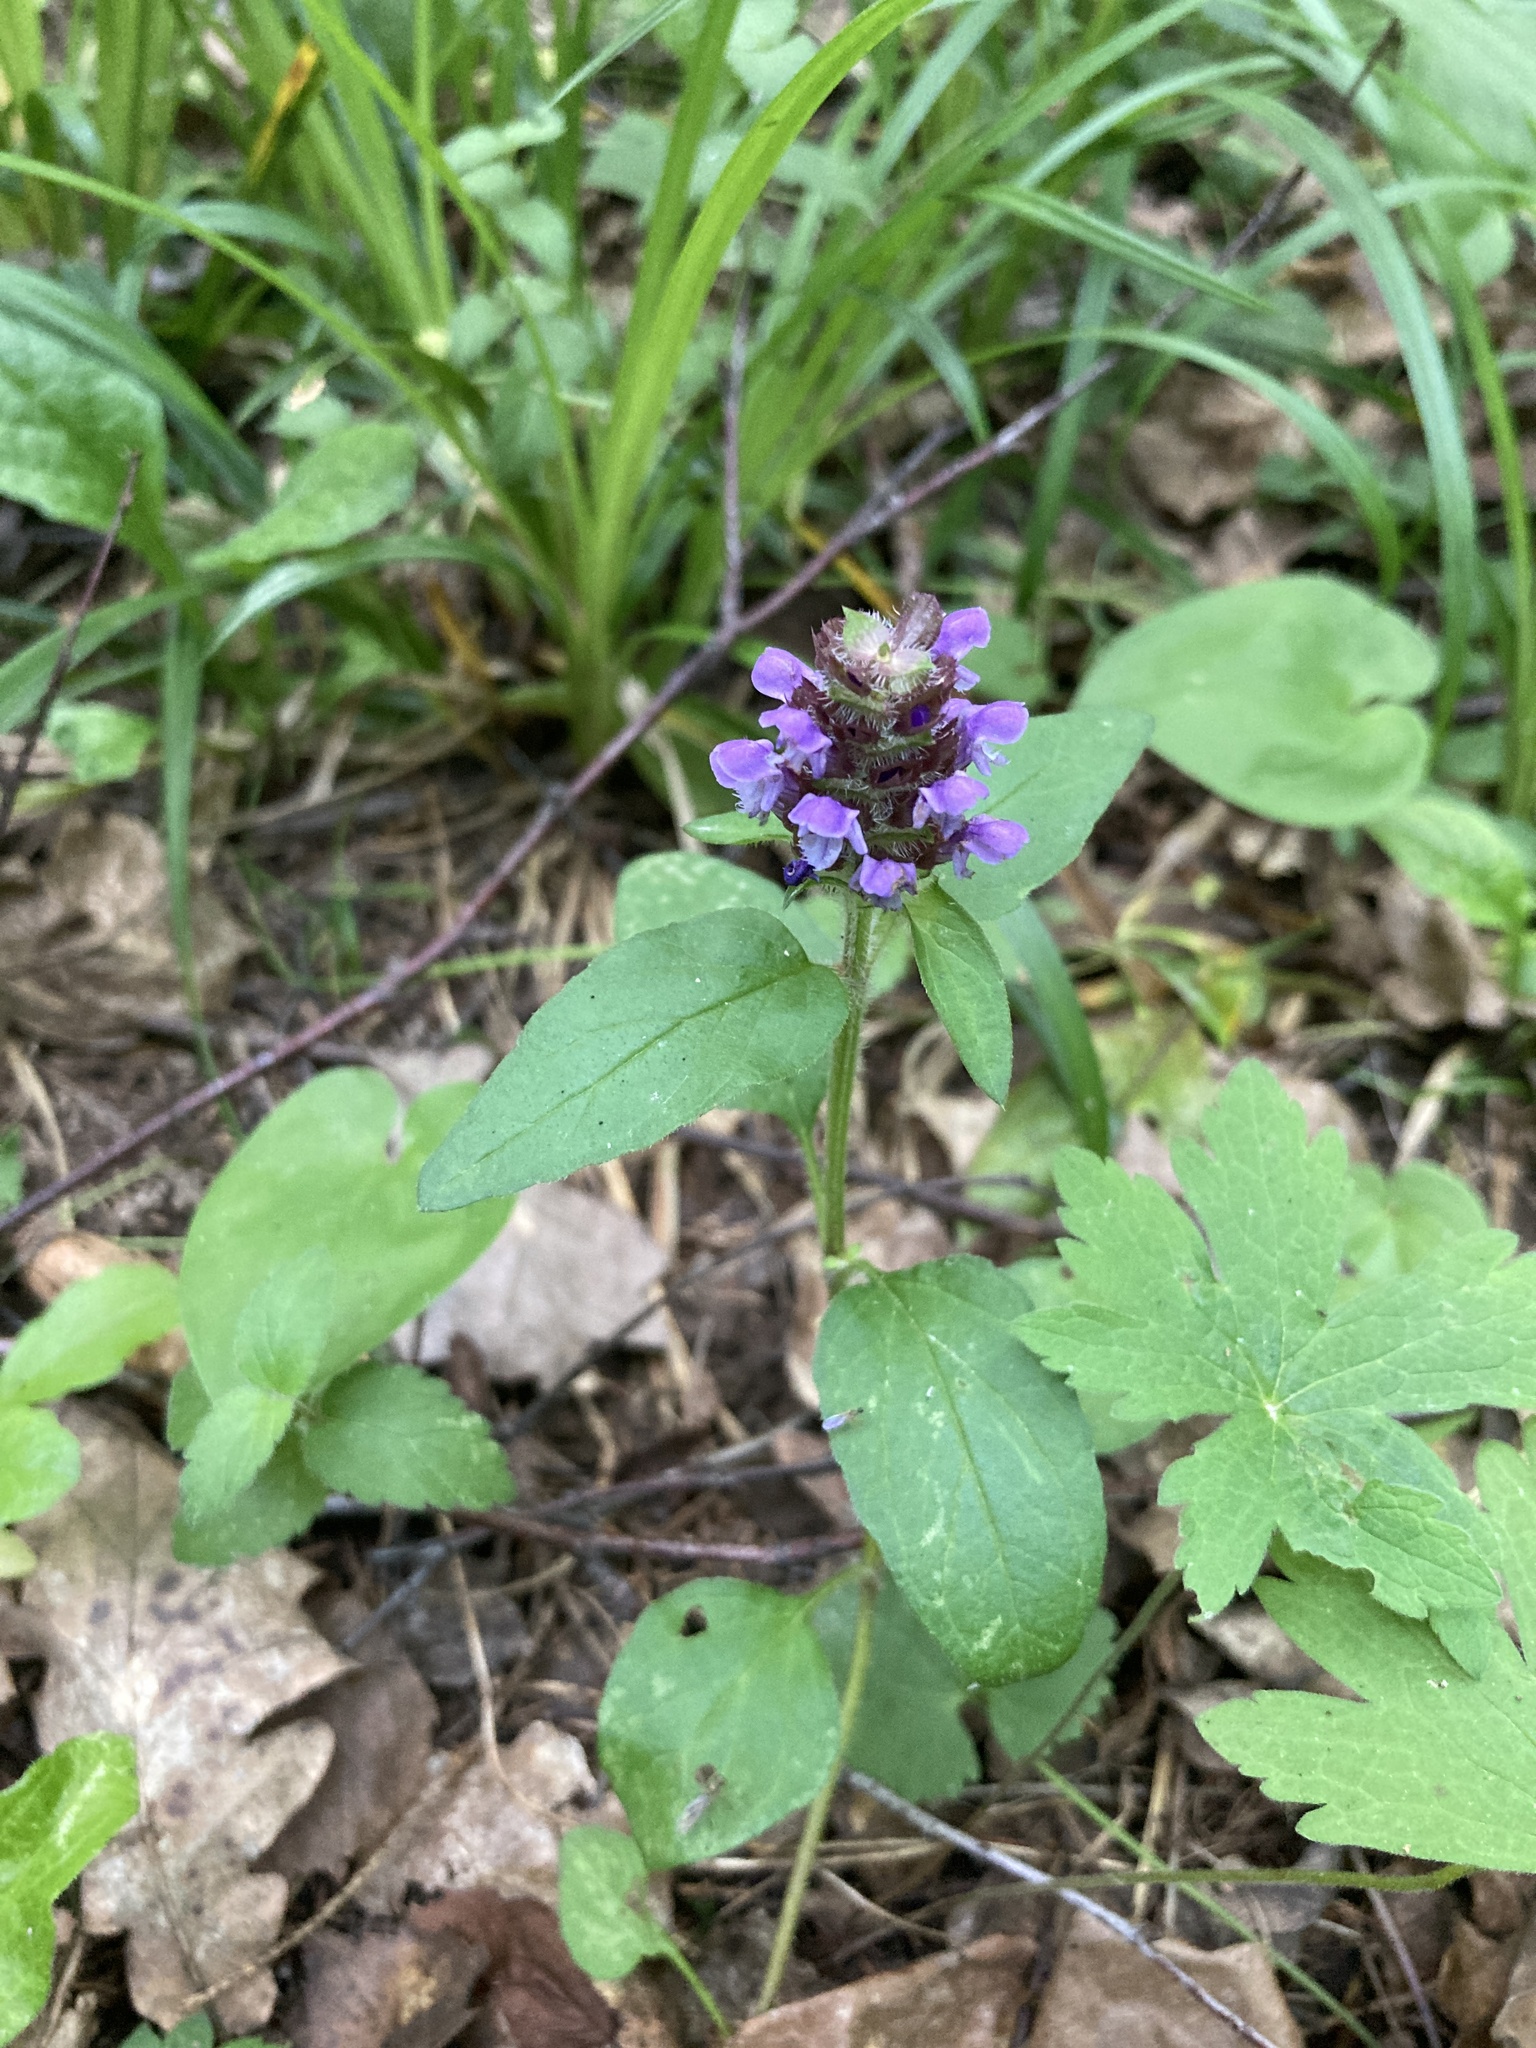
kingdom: Plantae
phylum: Tracheophyta
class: Magnoliopsida
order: Lamiales
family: Lamiaceae
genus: Prunella
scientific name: Prunella vulgaris
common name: Heal-all
